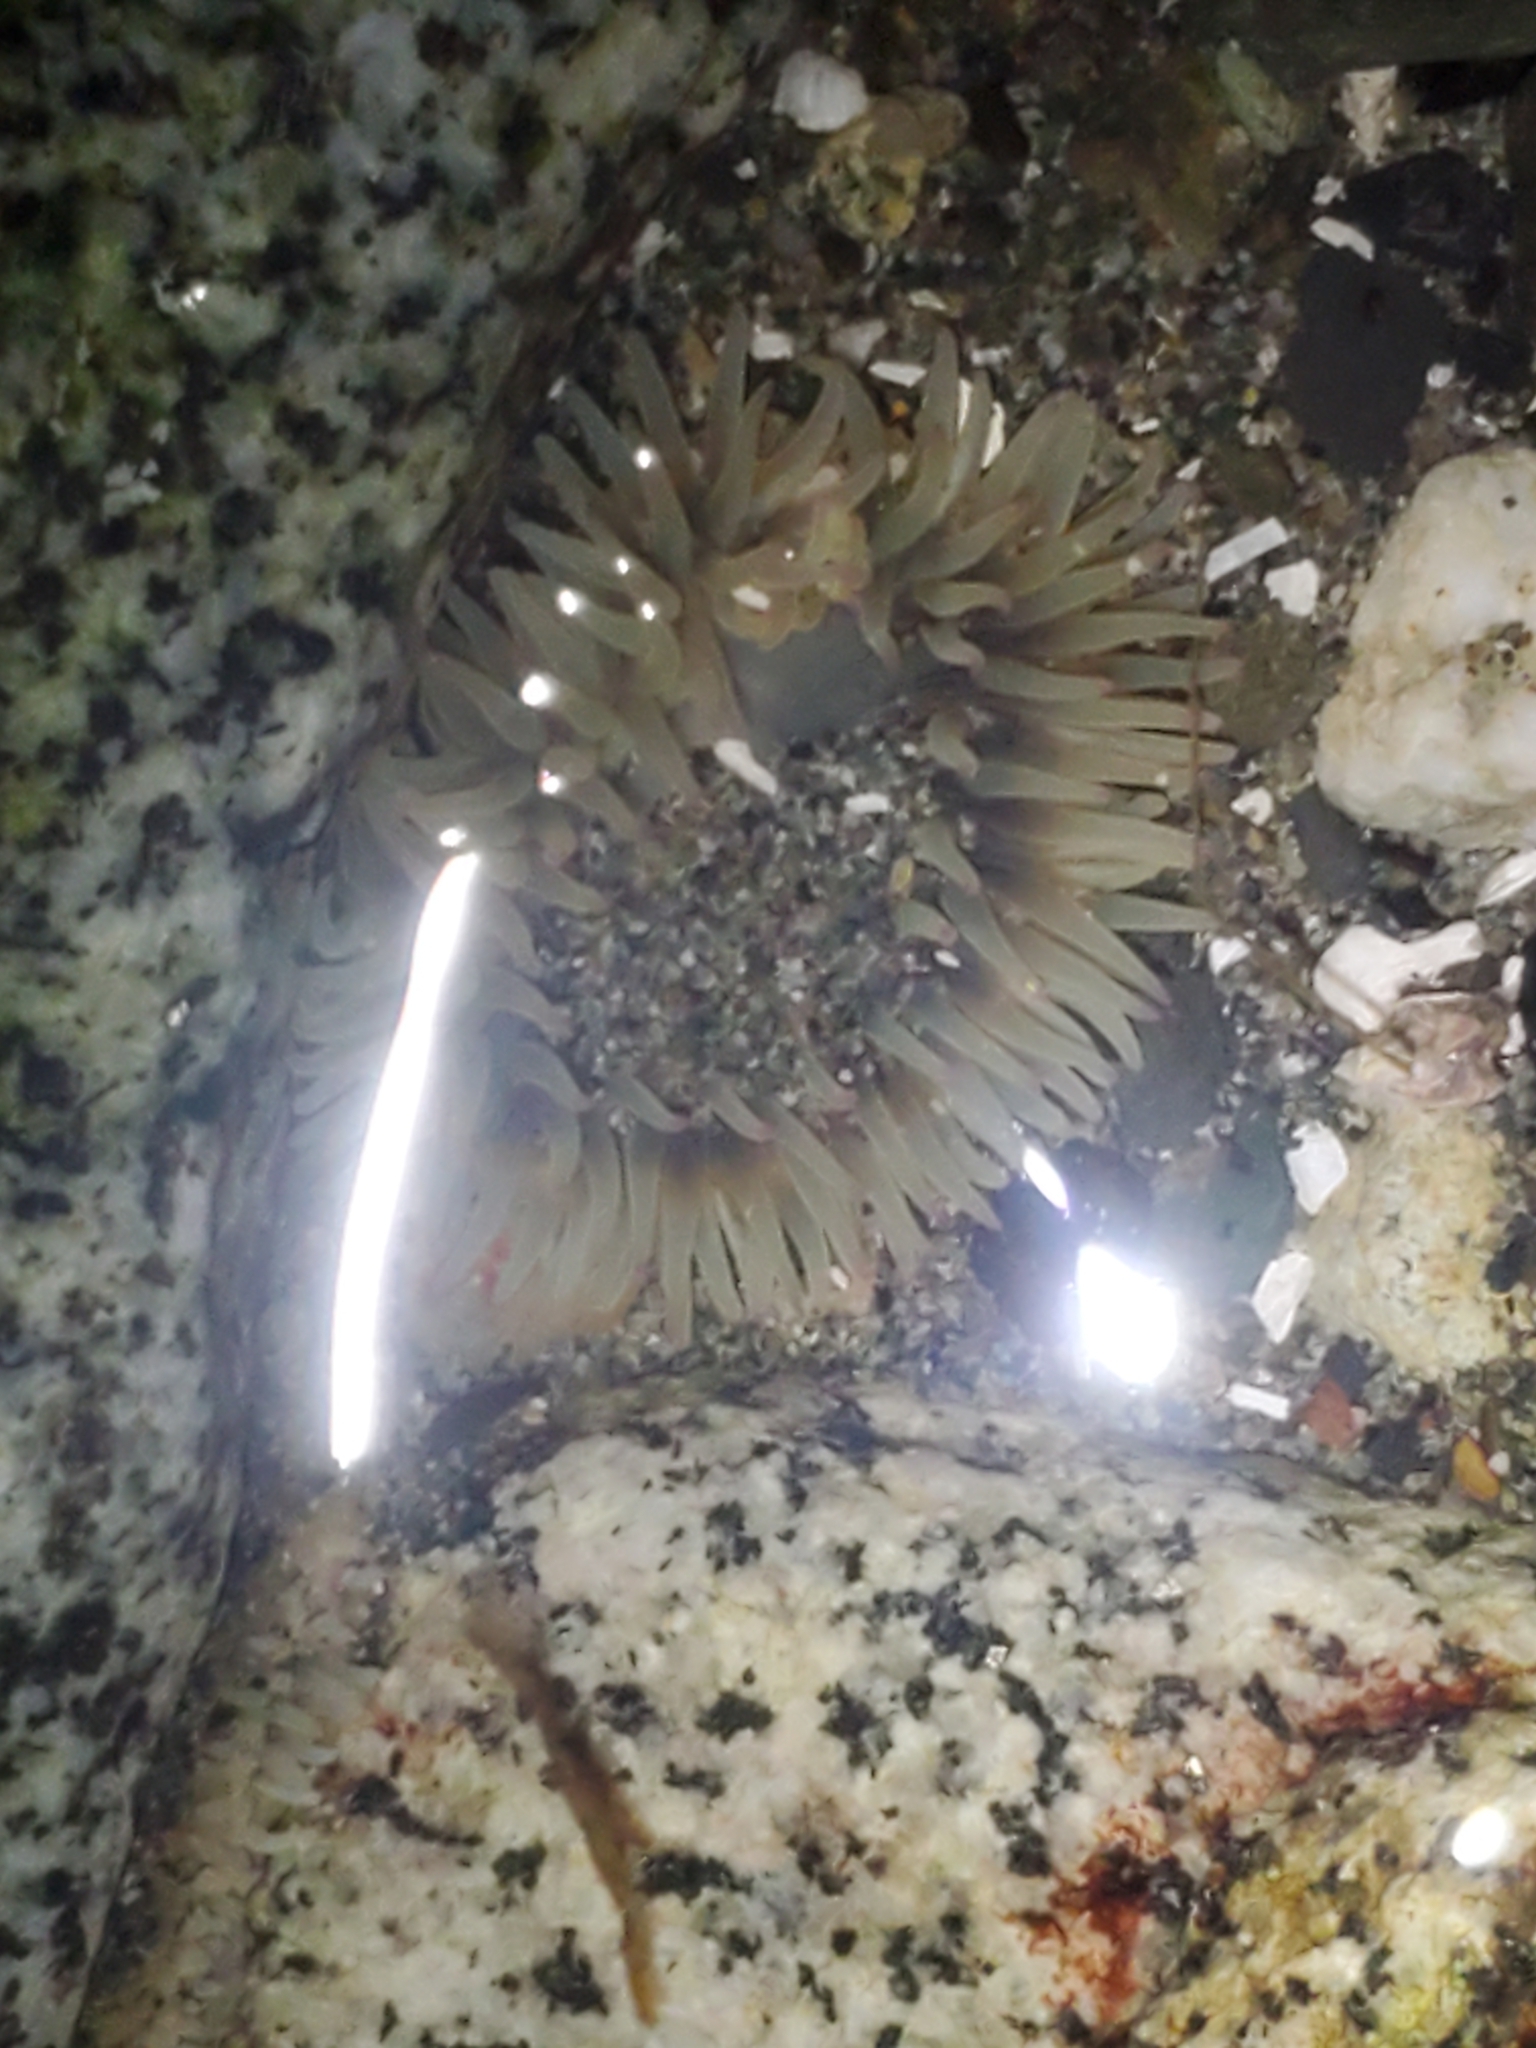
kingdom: Animalia
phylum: Cnidaria
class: Anthozoa
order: Actiniaria
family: Actiniidae
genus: Anthopleura
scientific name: Anthopleura elegantissima
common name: Clonal anemone
